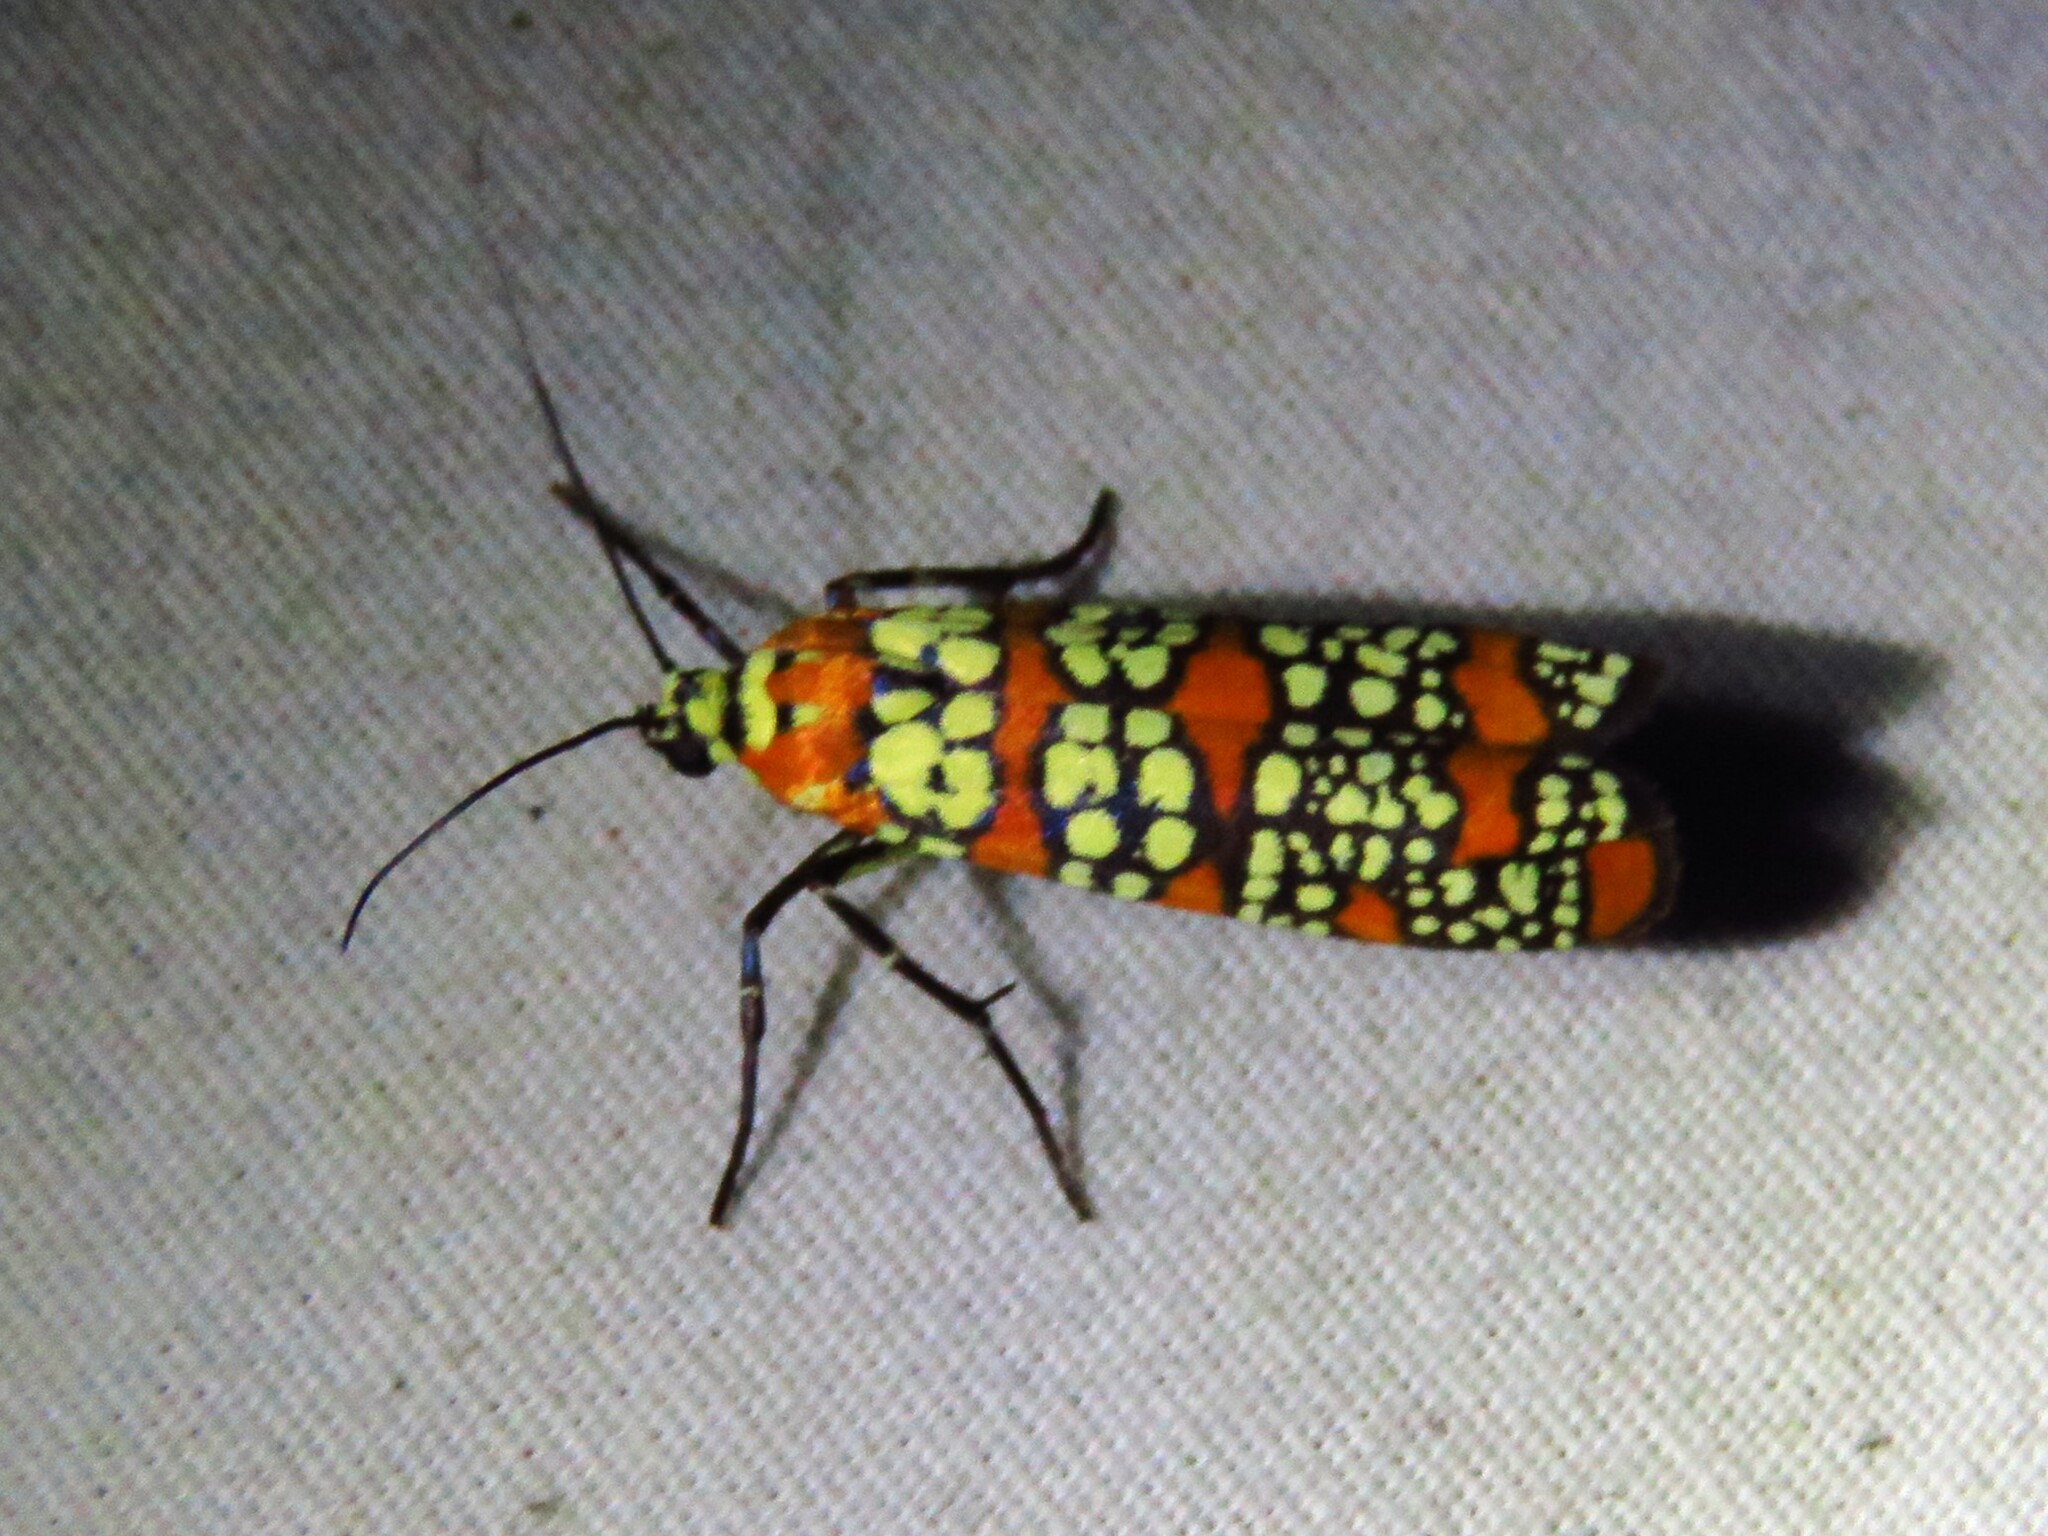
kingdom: Animalia
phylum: Arthropoda
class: Insecta
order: Lepidoptera
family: Attevidae
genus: Atteva
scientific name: Atteva punctella
